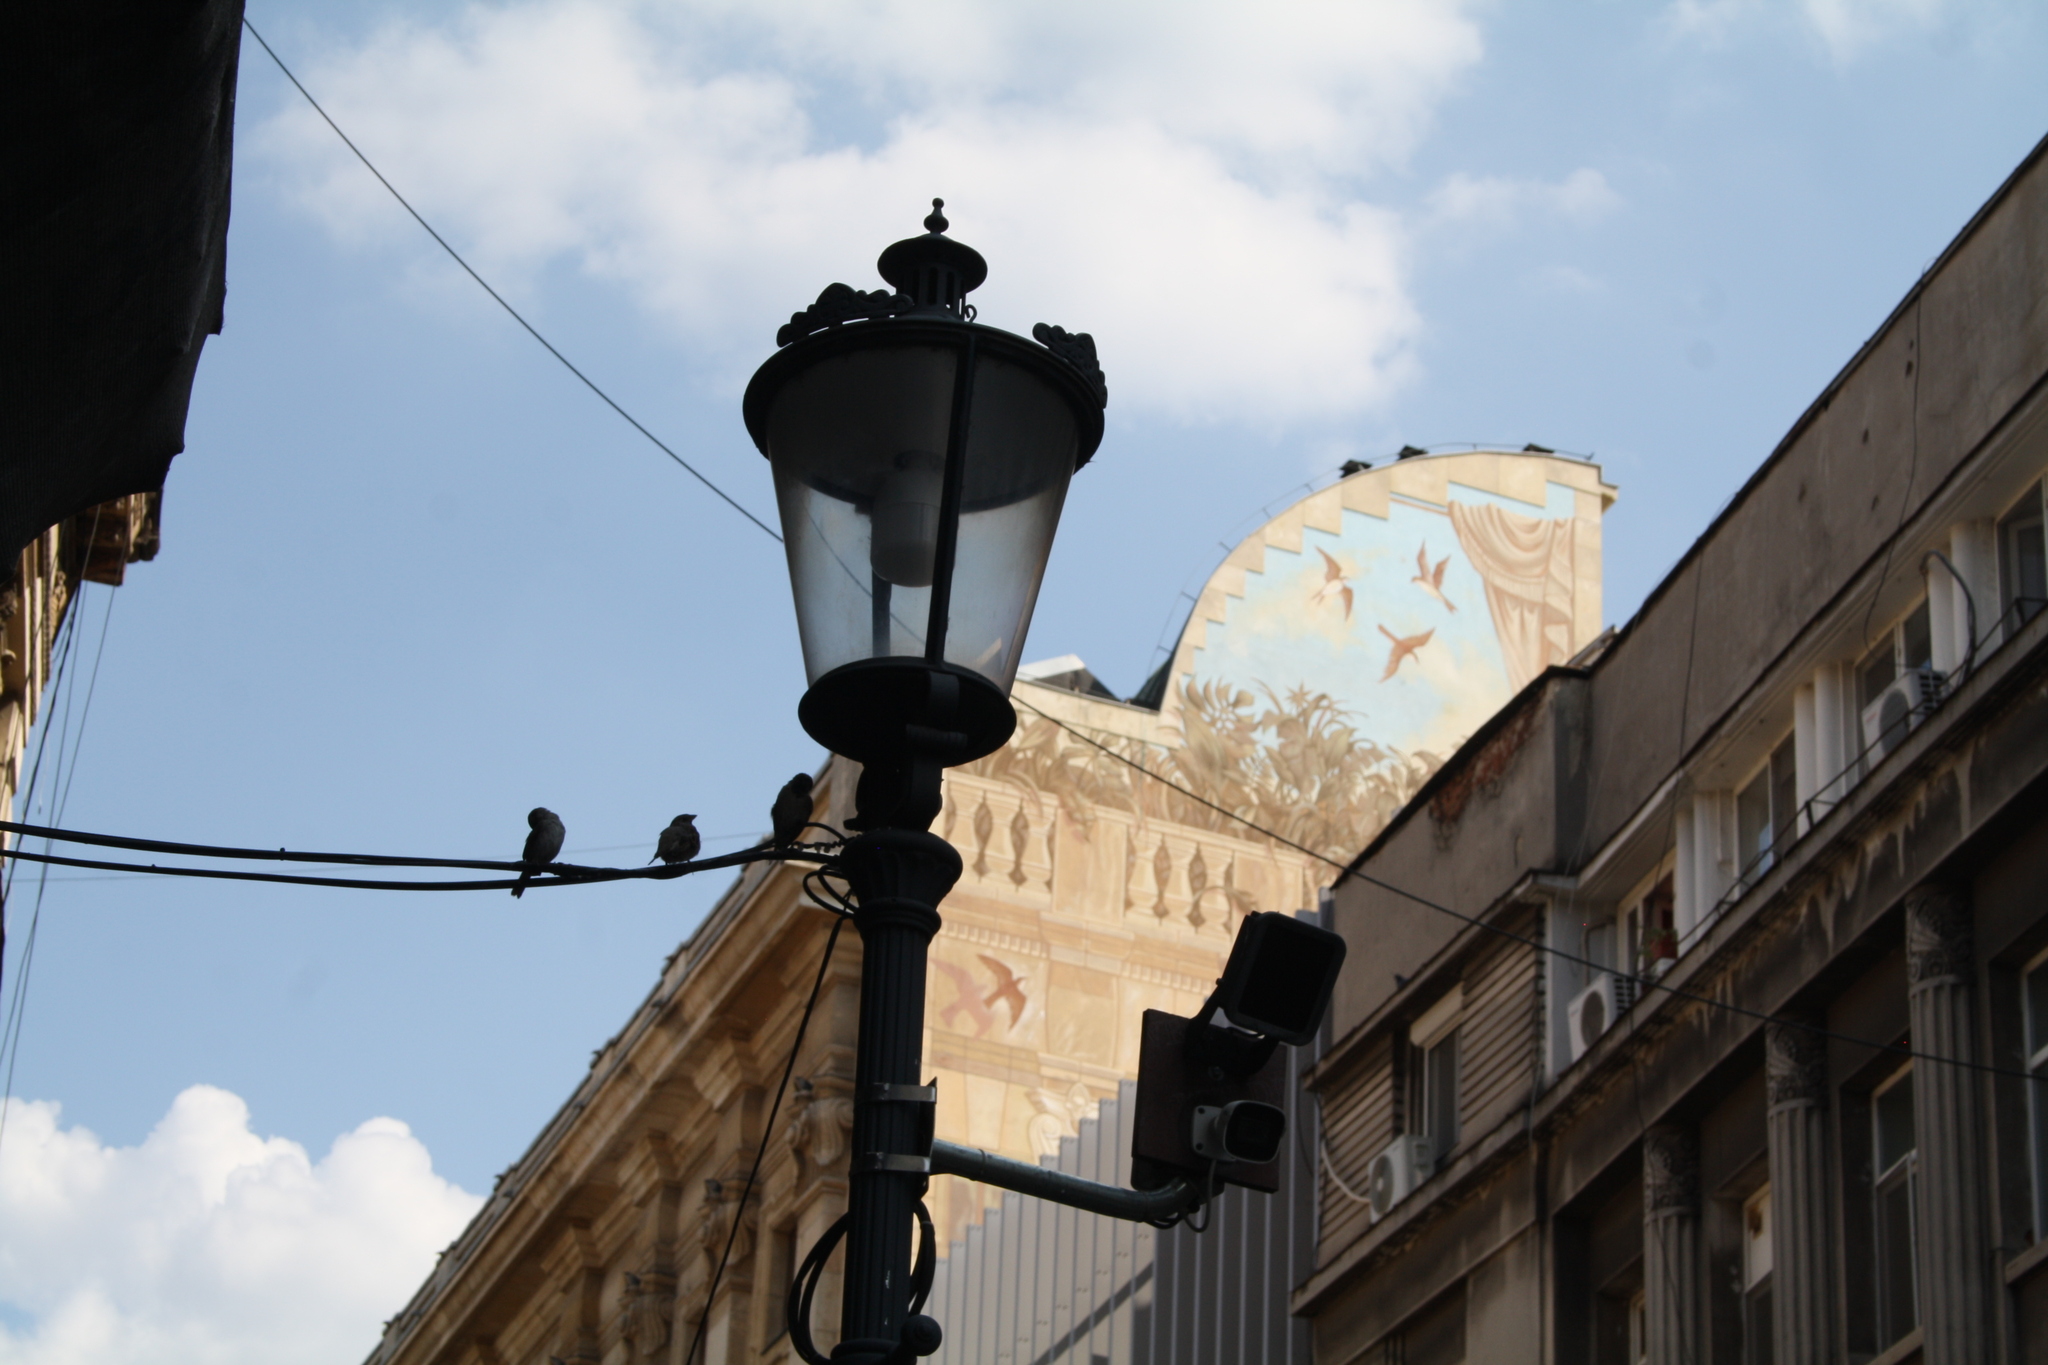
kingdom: Animalia
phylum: Chordata
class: Aves
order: Passeriformes
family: Passeridae
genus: Passer
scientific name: Passer domesticus
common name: House sparrow
